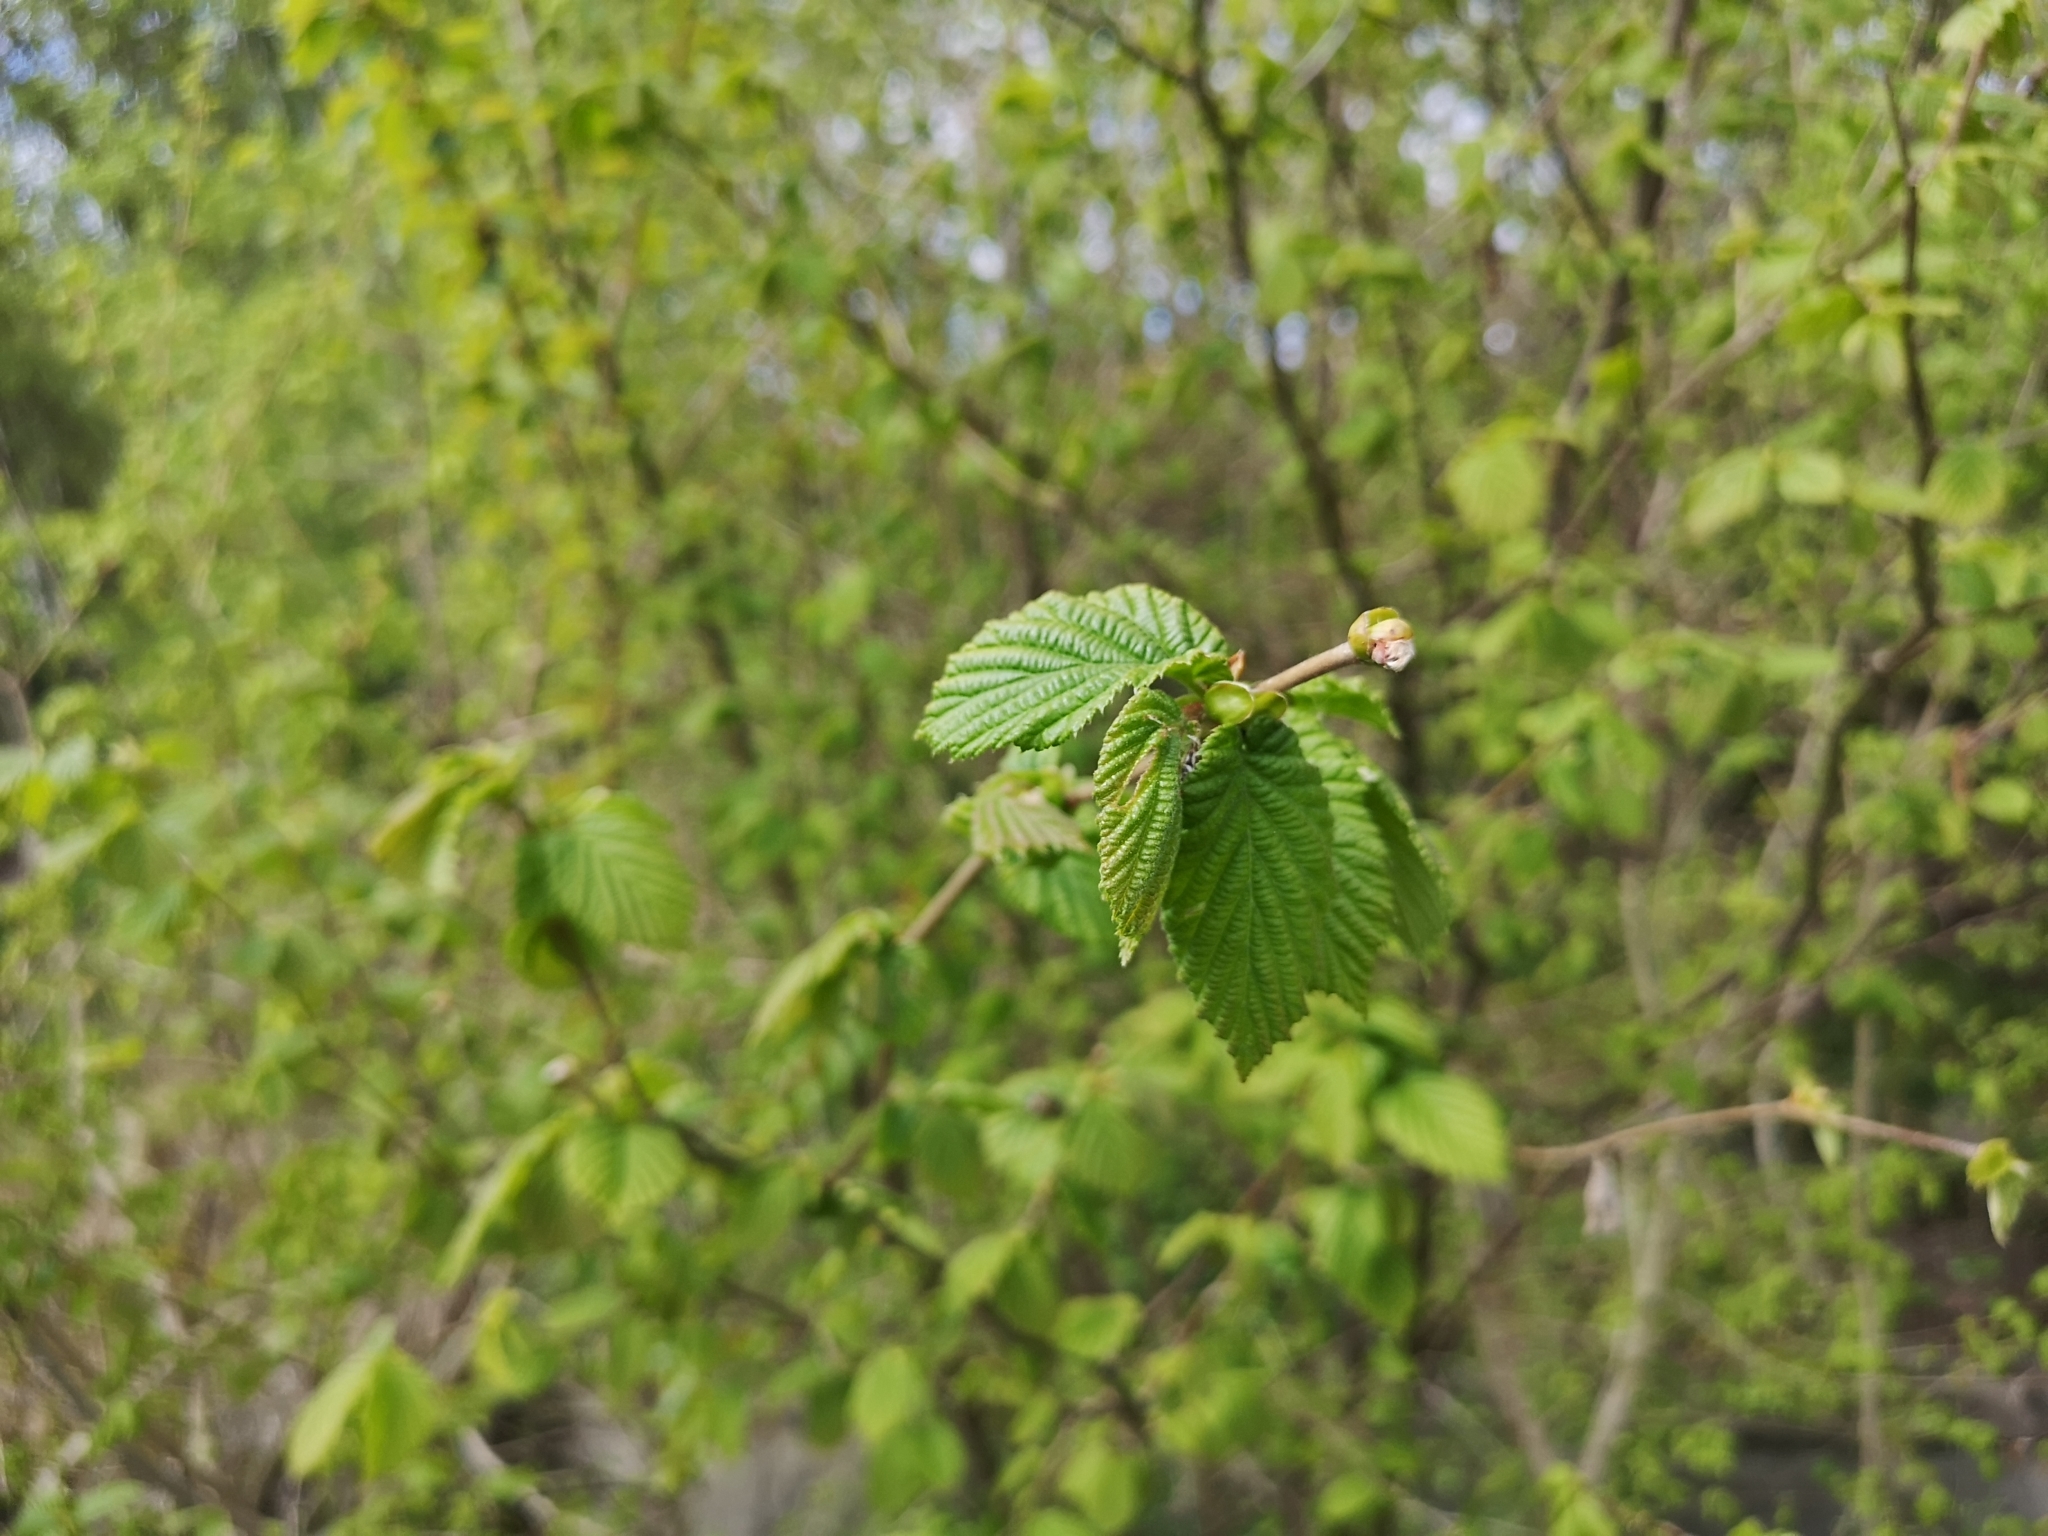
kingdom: Plantae
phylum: Tracheophyta
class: Magnoliopsida
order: Fagales
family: Betulaceae
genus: Corylus
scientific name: Corylus avellana
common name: European hazel
